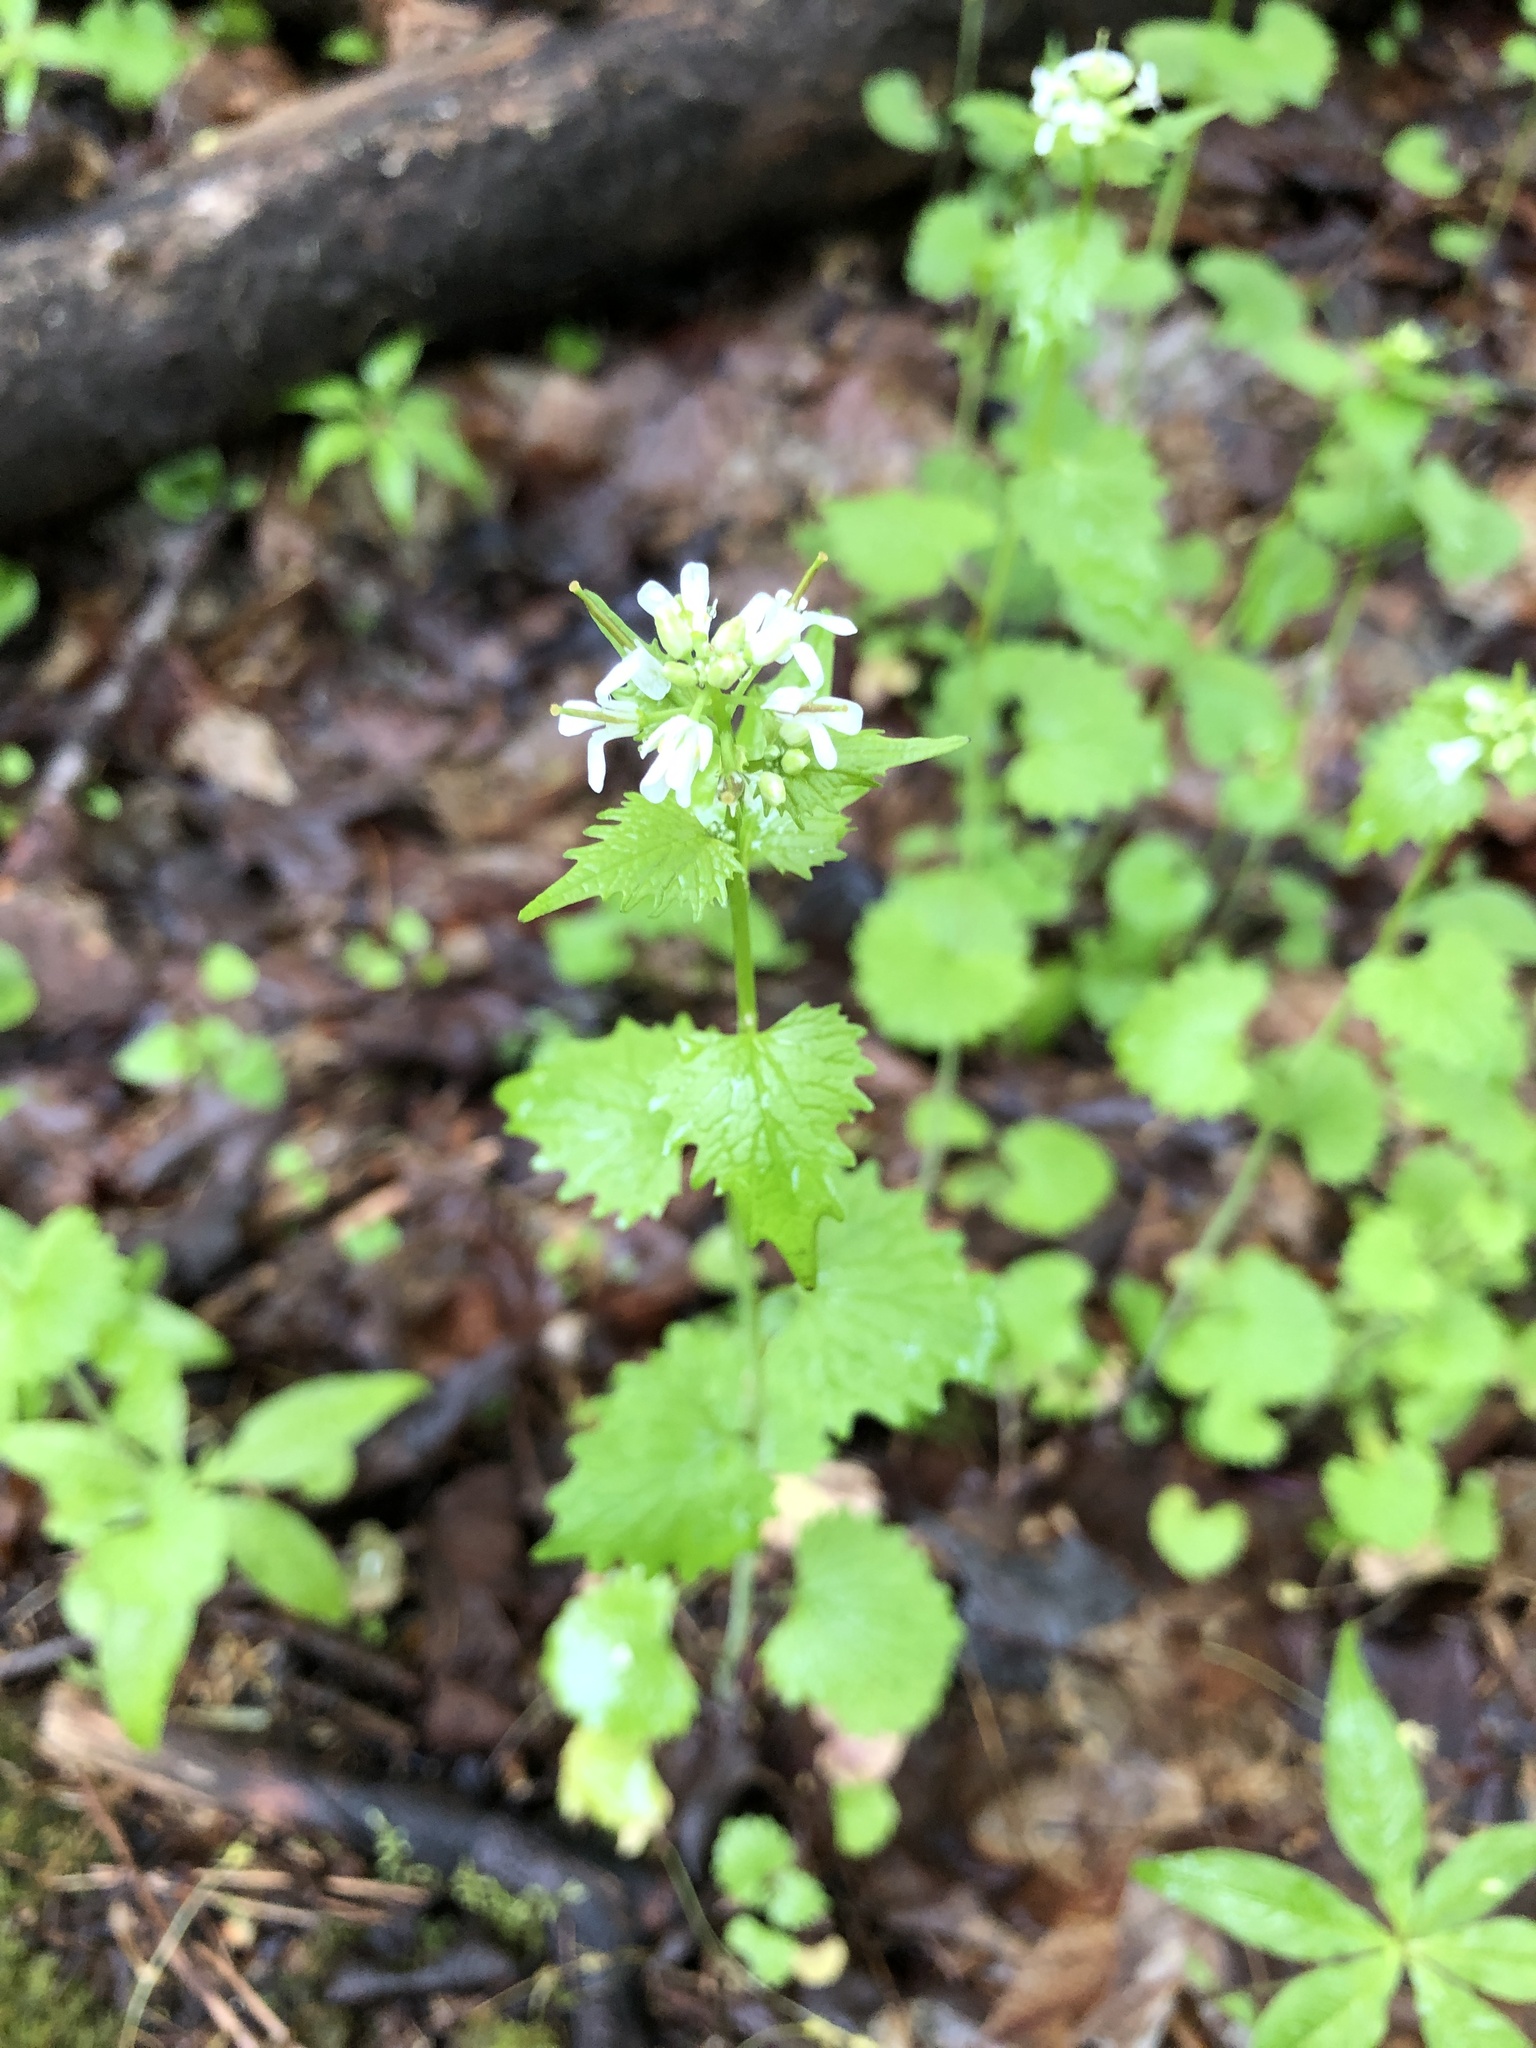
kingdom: Plantae
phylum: Tracheophyta
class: Magnoliopsida
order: Brassicales
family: Brassicaceae
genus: Alliaria
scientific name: Alliaria petiolata
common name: Garlic mustard
